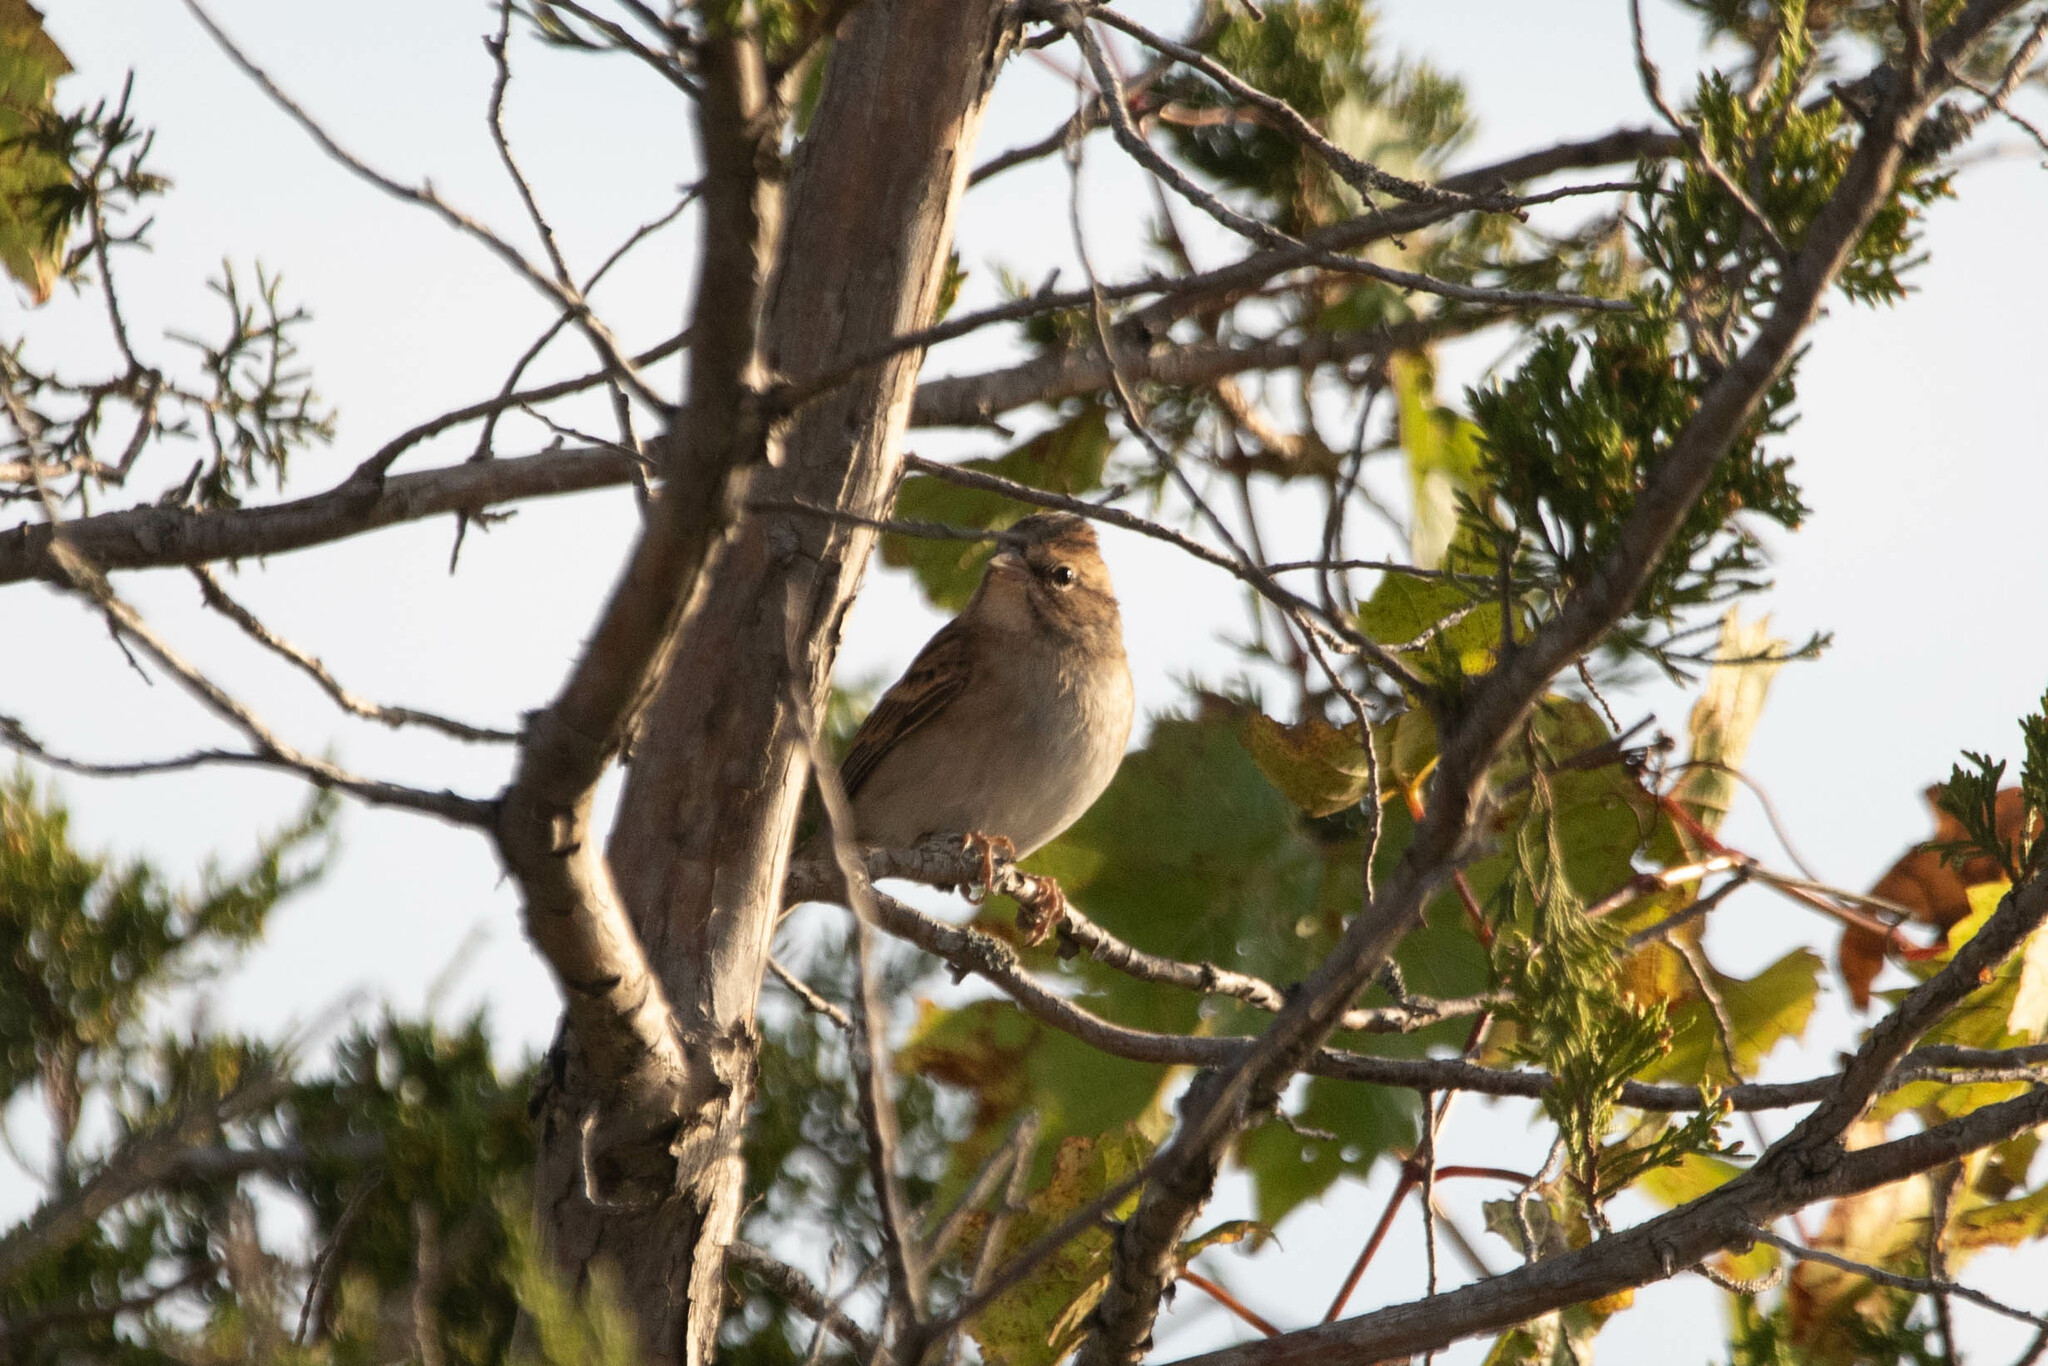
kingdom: Animalia
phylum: Chordata
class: Aves
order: Passeriformes
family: Passerellidae
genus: Spizella
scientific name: Spizella passerina
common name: Chipping sparrow
